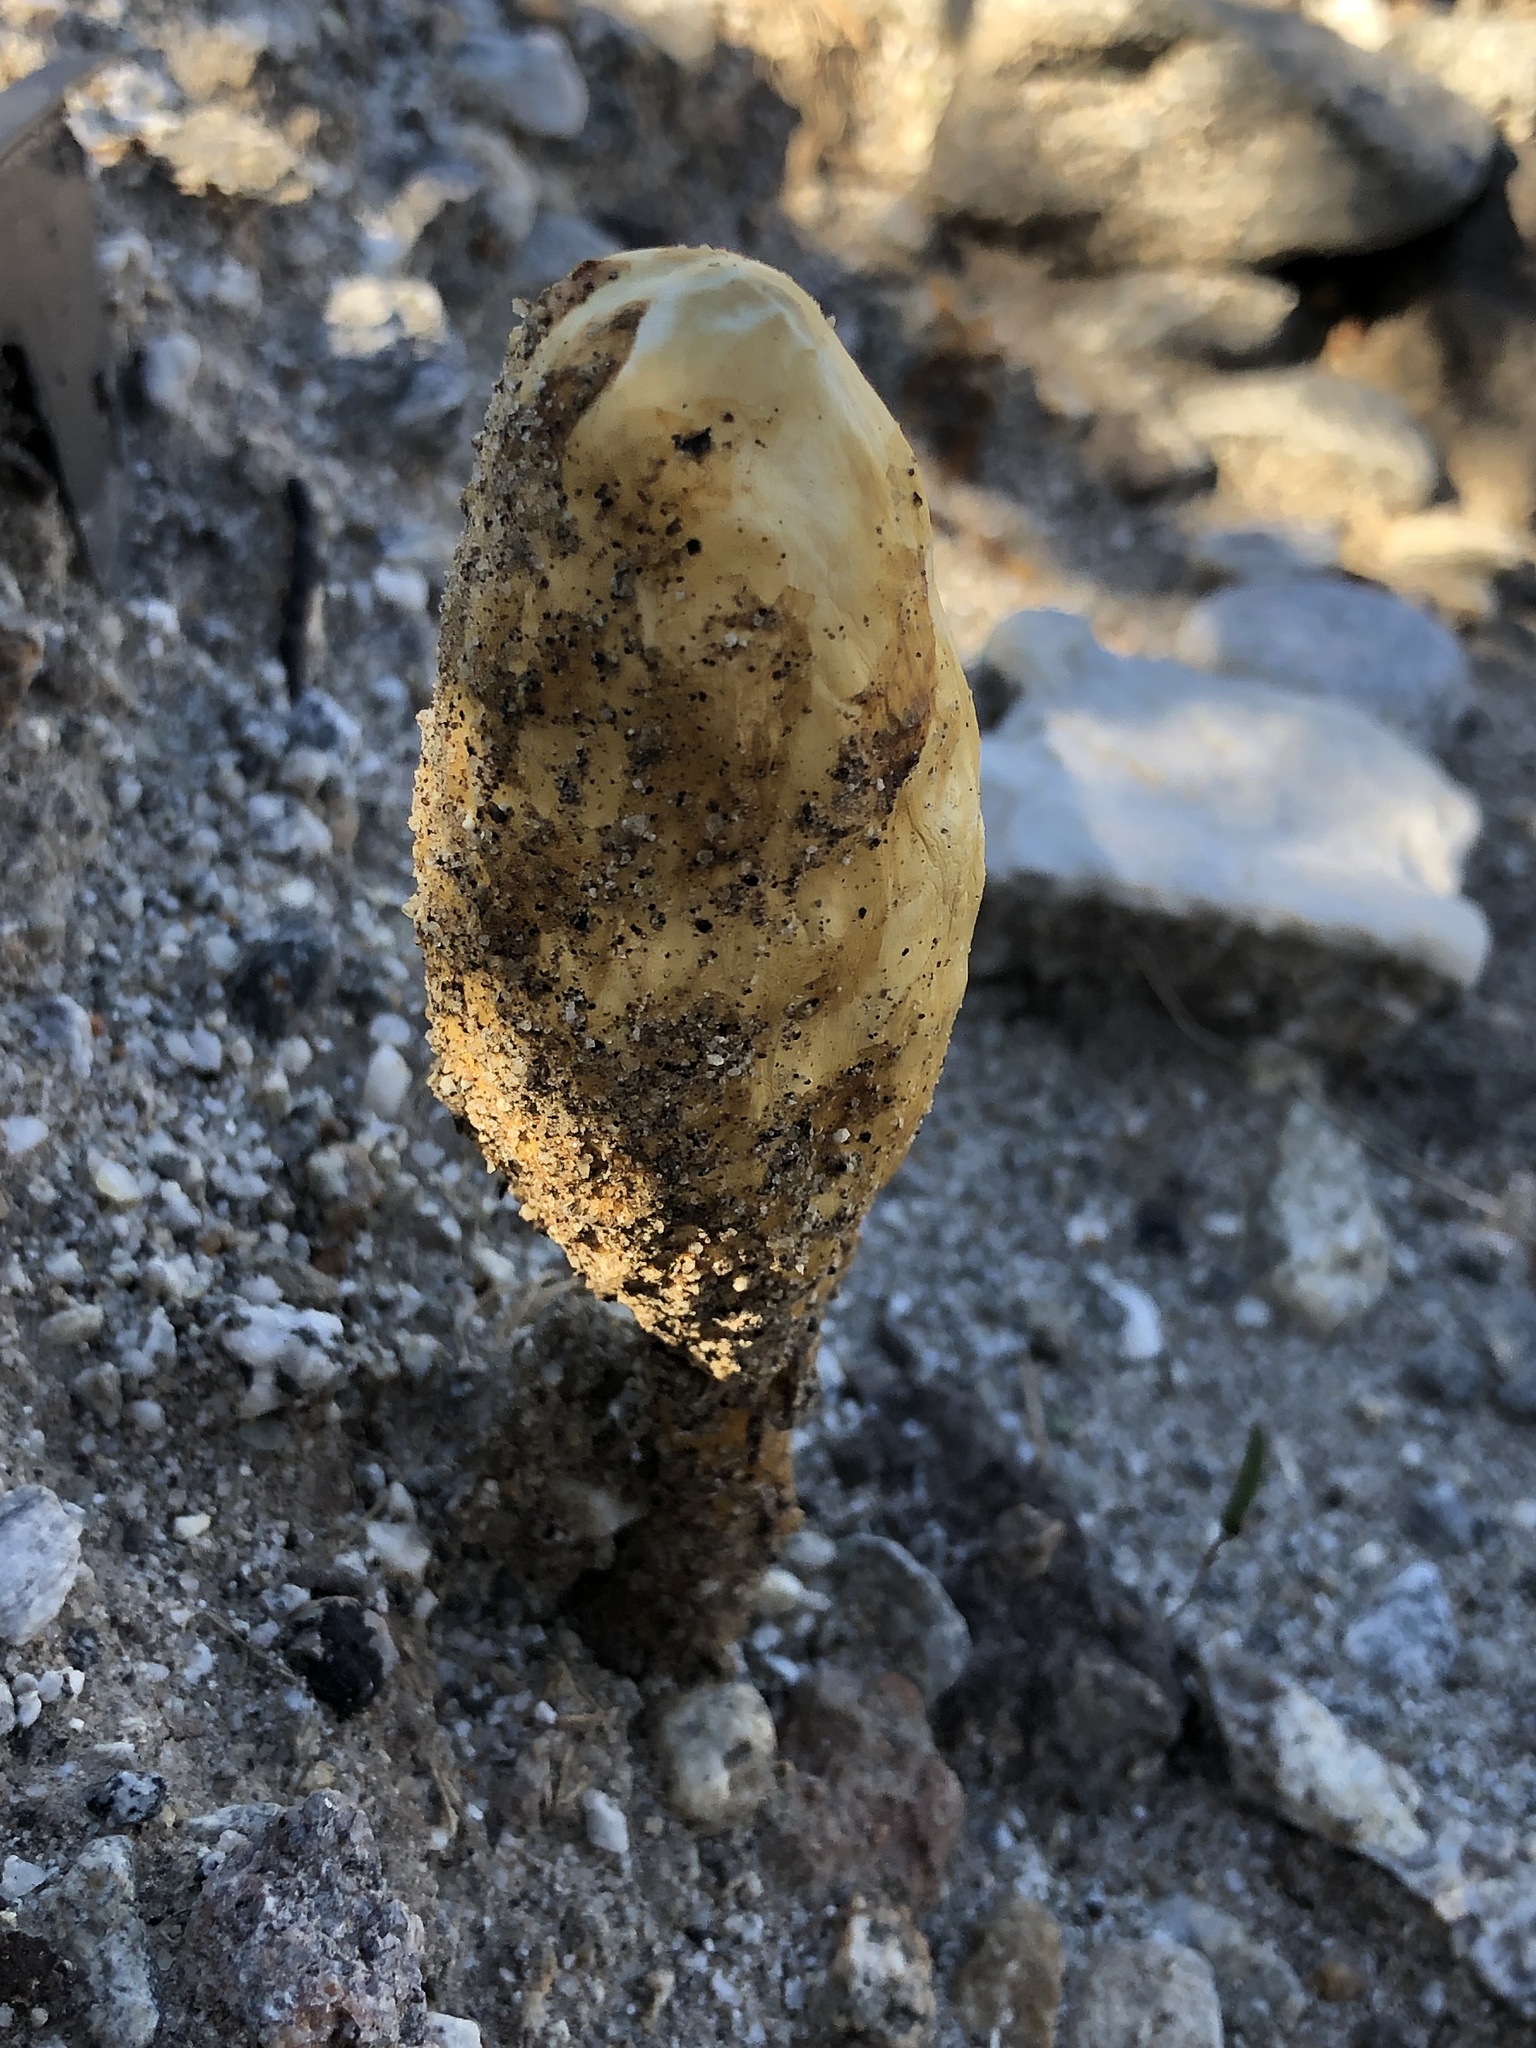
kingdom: Fungi
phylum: Basidiomycota
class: Agaricomycetes
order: Agaricales
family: Agaricaceae
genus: Podaxis
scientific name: Podaxis pistillaris
